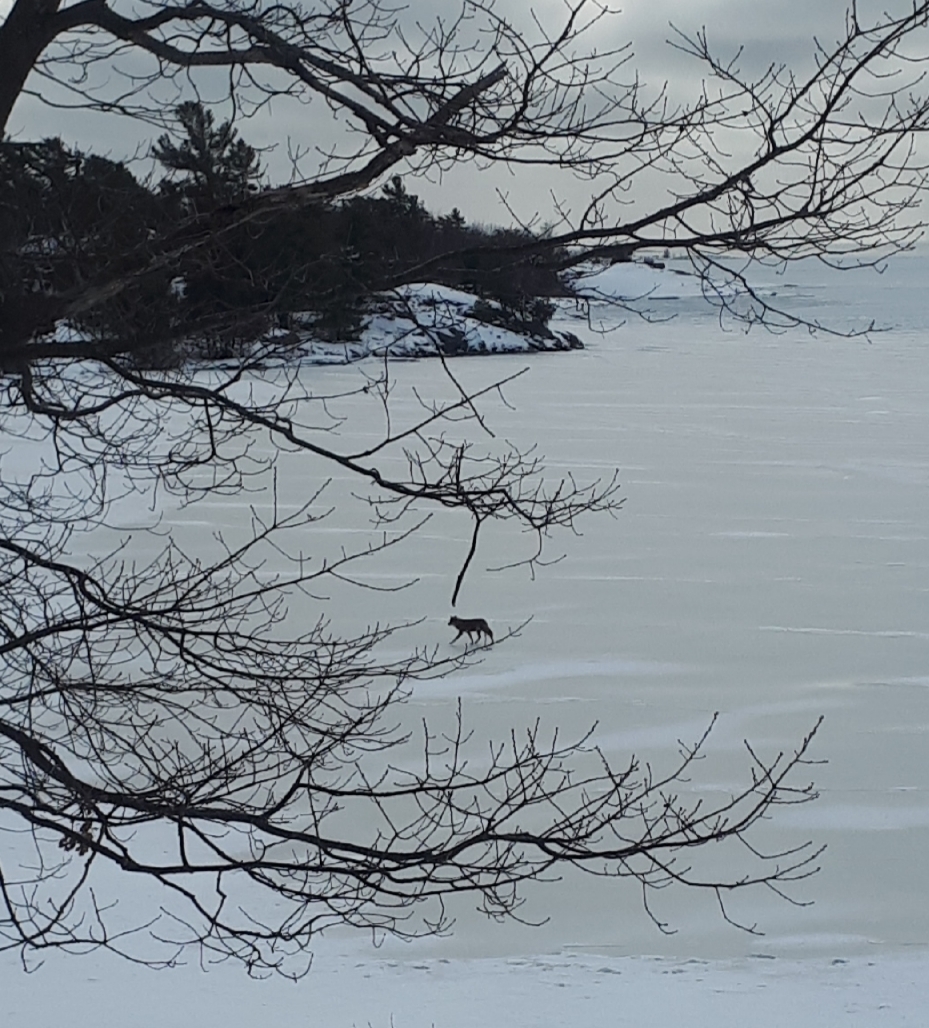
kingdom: Animalia
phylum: Chordata
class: Mammalia
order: Carnivora
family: Canidae
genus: Canis
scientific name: Canis latrans
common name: Coyote
